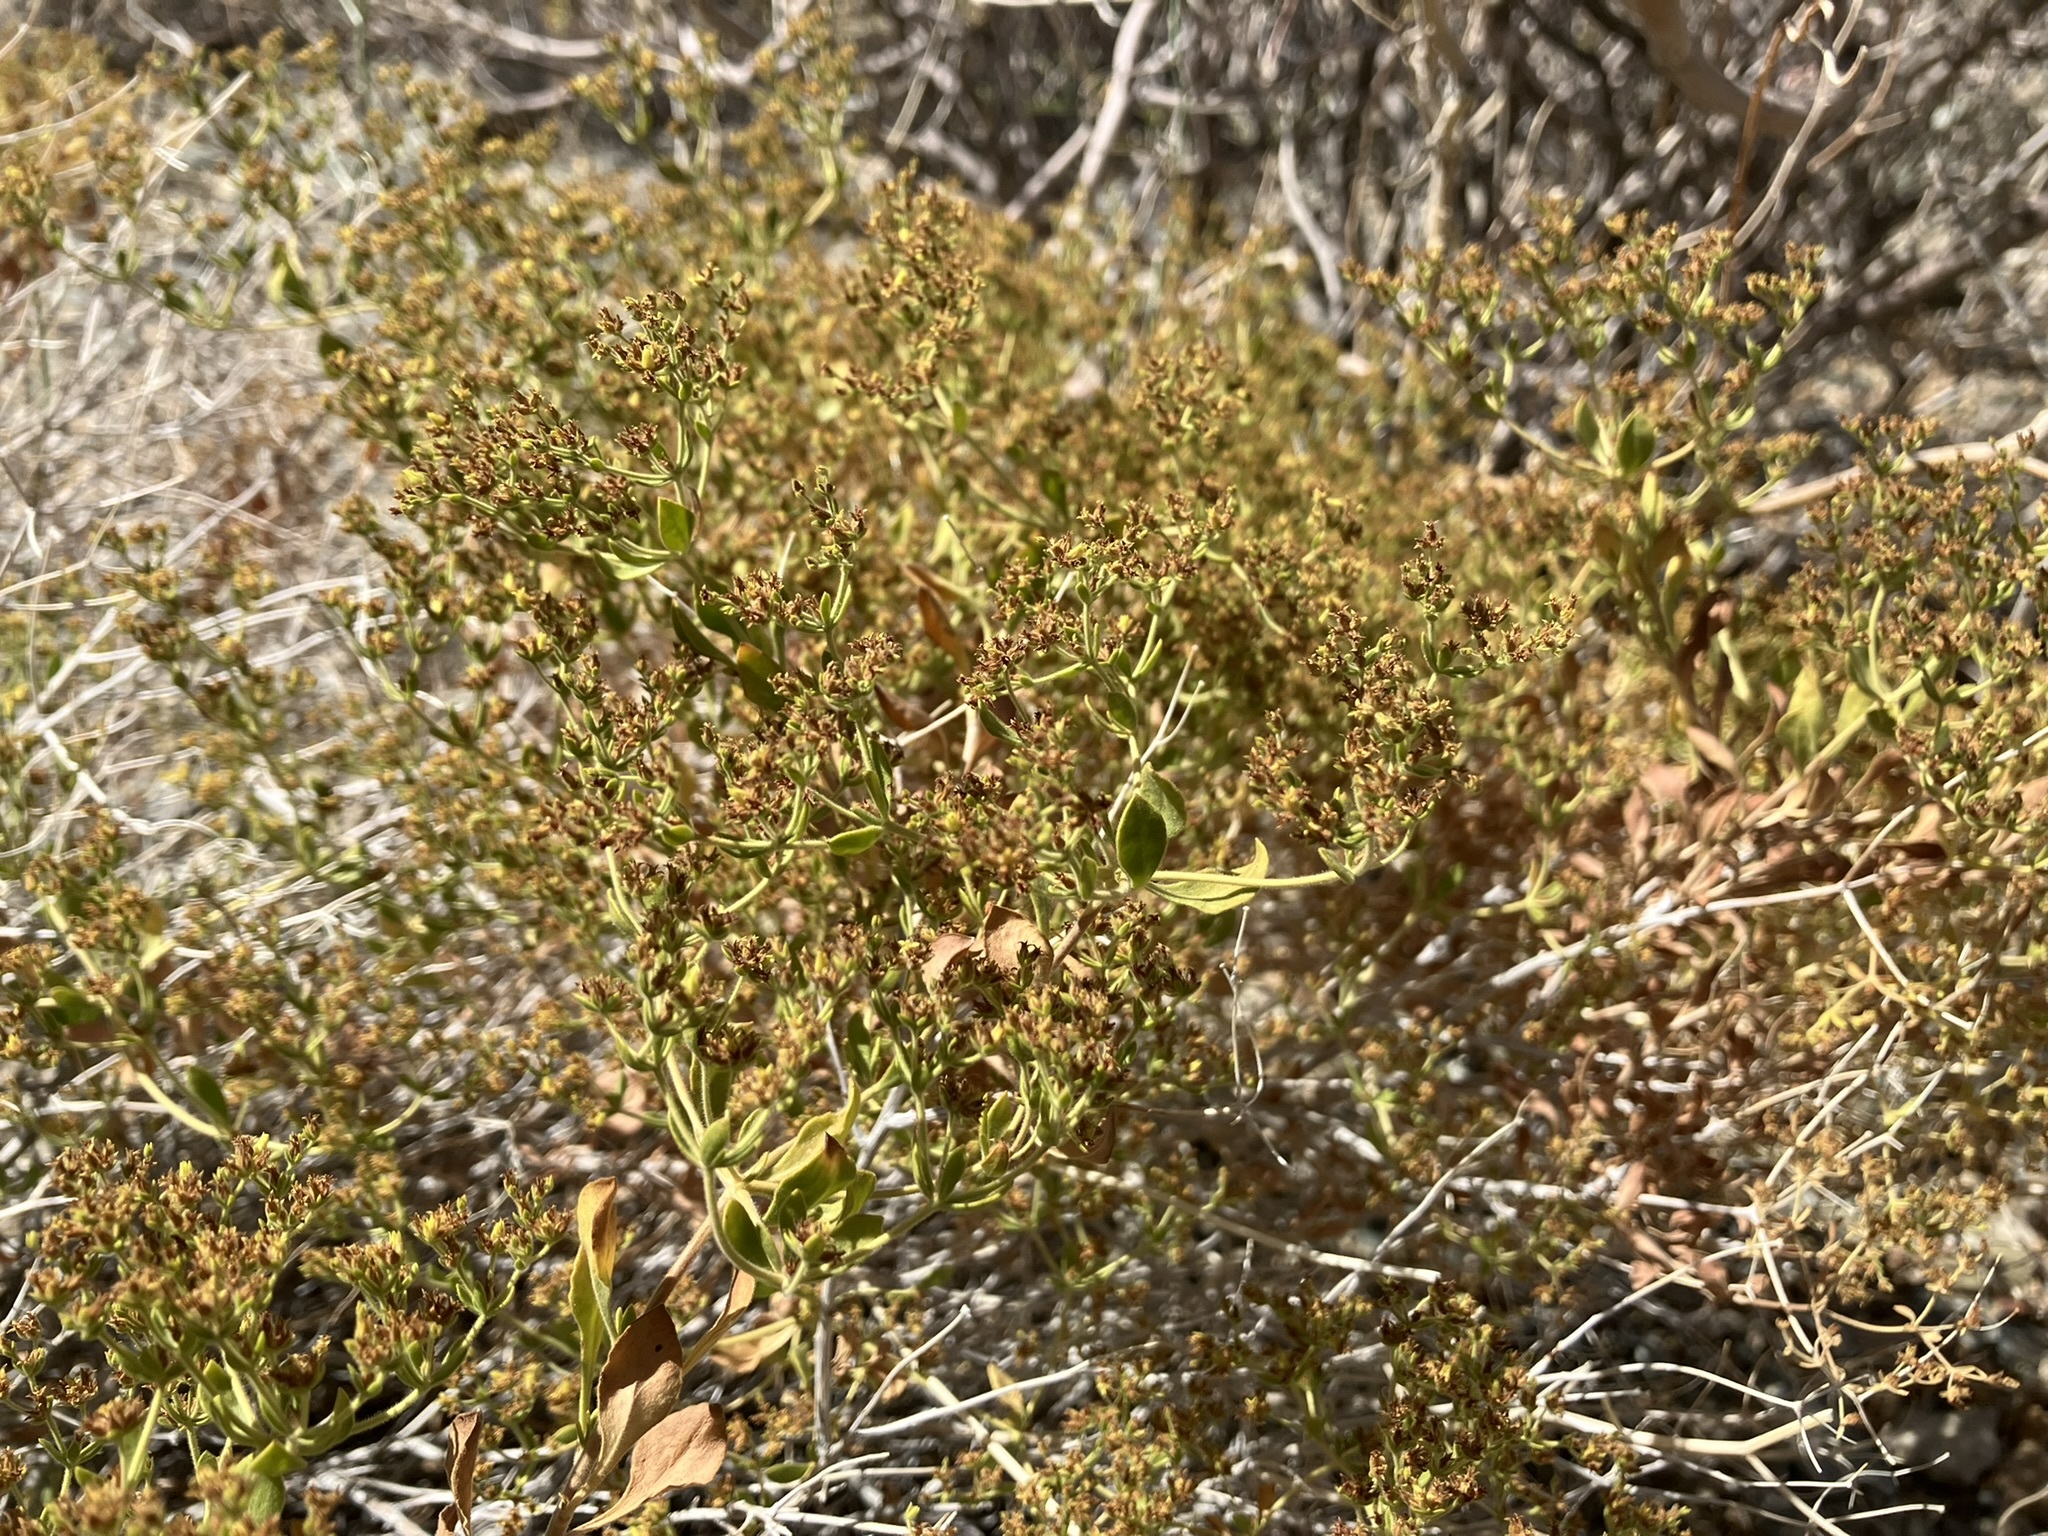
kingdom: Plantae
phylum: Tracheophyta
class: Magnoliopsida
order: Caryophyllales
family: Polygonaceae
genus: Dedeckera
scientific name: Dedeckera eurekensis
